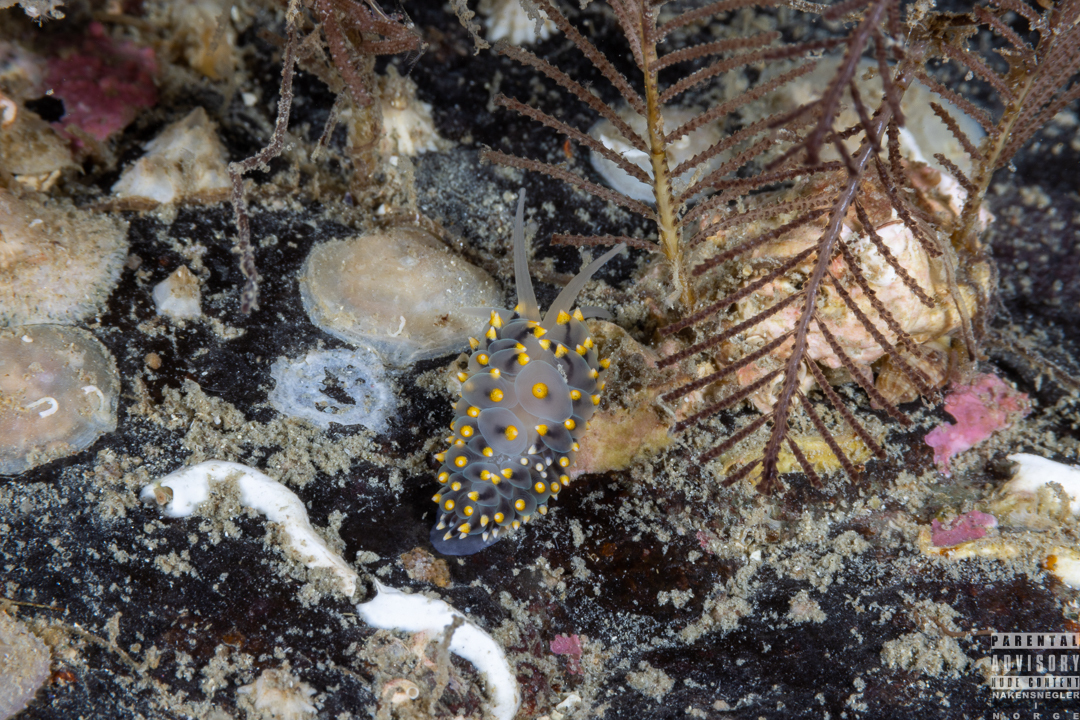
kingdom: Animalia
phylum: Mollusca
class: Gastropoda
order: Nudibranchia
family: Eubranchidae
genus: Eubranchus
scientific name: Eubranchus tricolor
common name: Painted balloon aeolis
